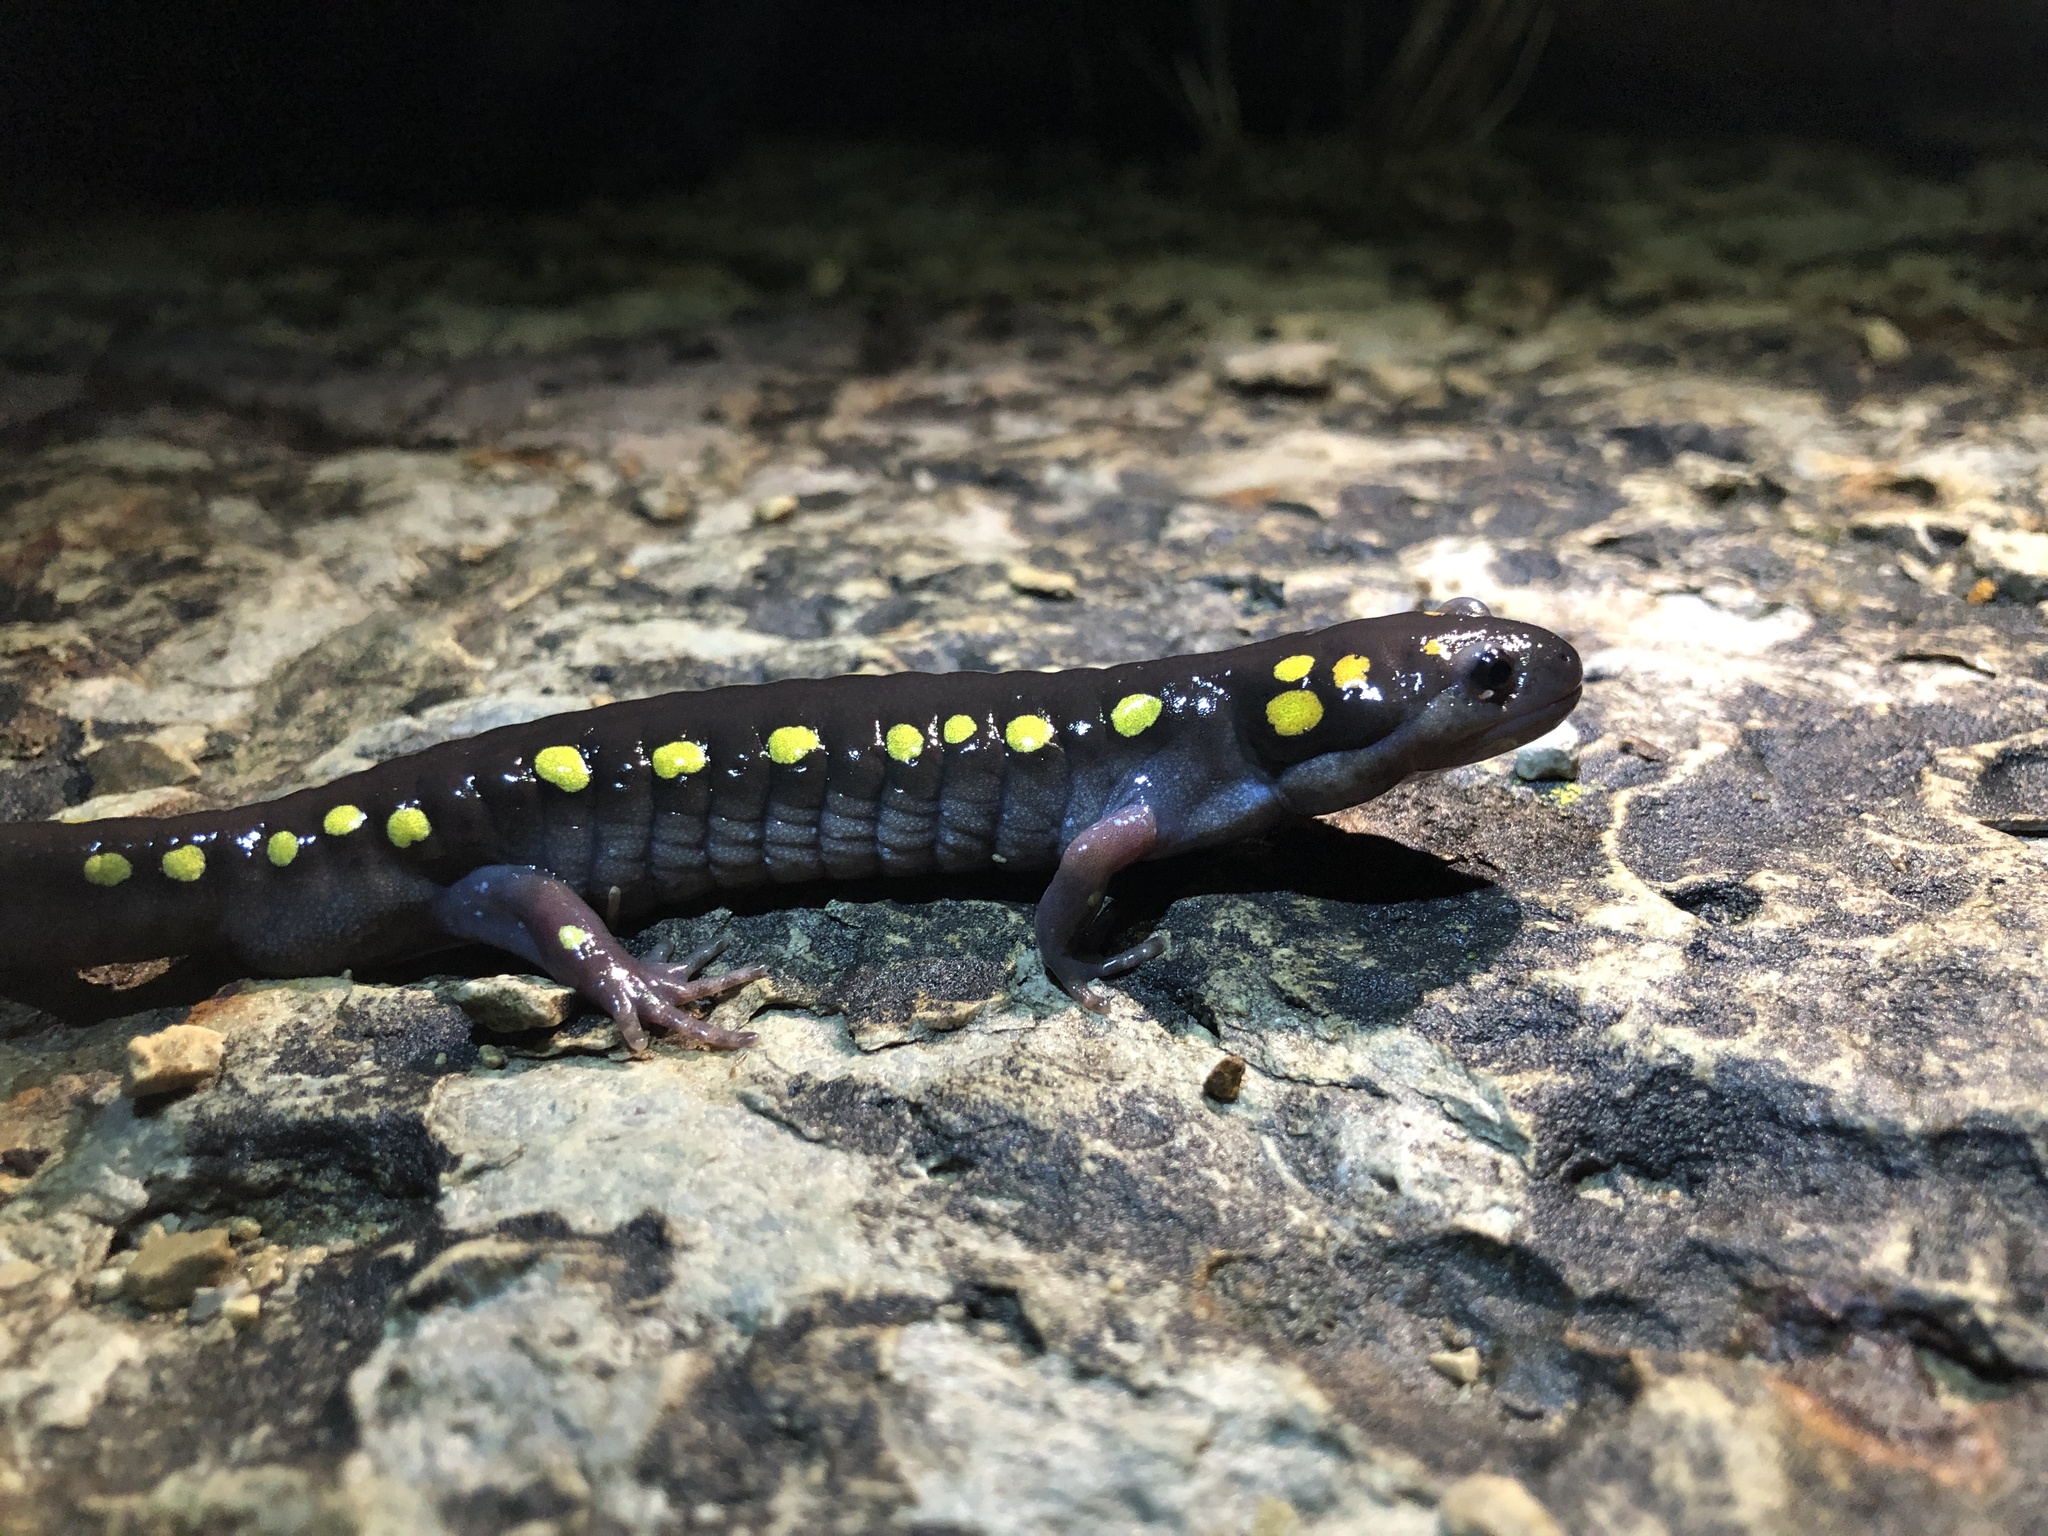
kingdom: Animalia
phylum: Chordata
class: Amphibia
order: Caudata
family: Ambystomatidae
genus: Ambystoma
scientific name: Ambystoma maculatum
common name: Spotted salamander
